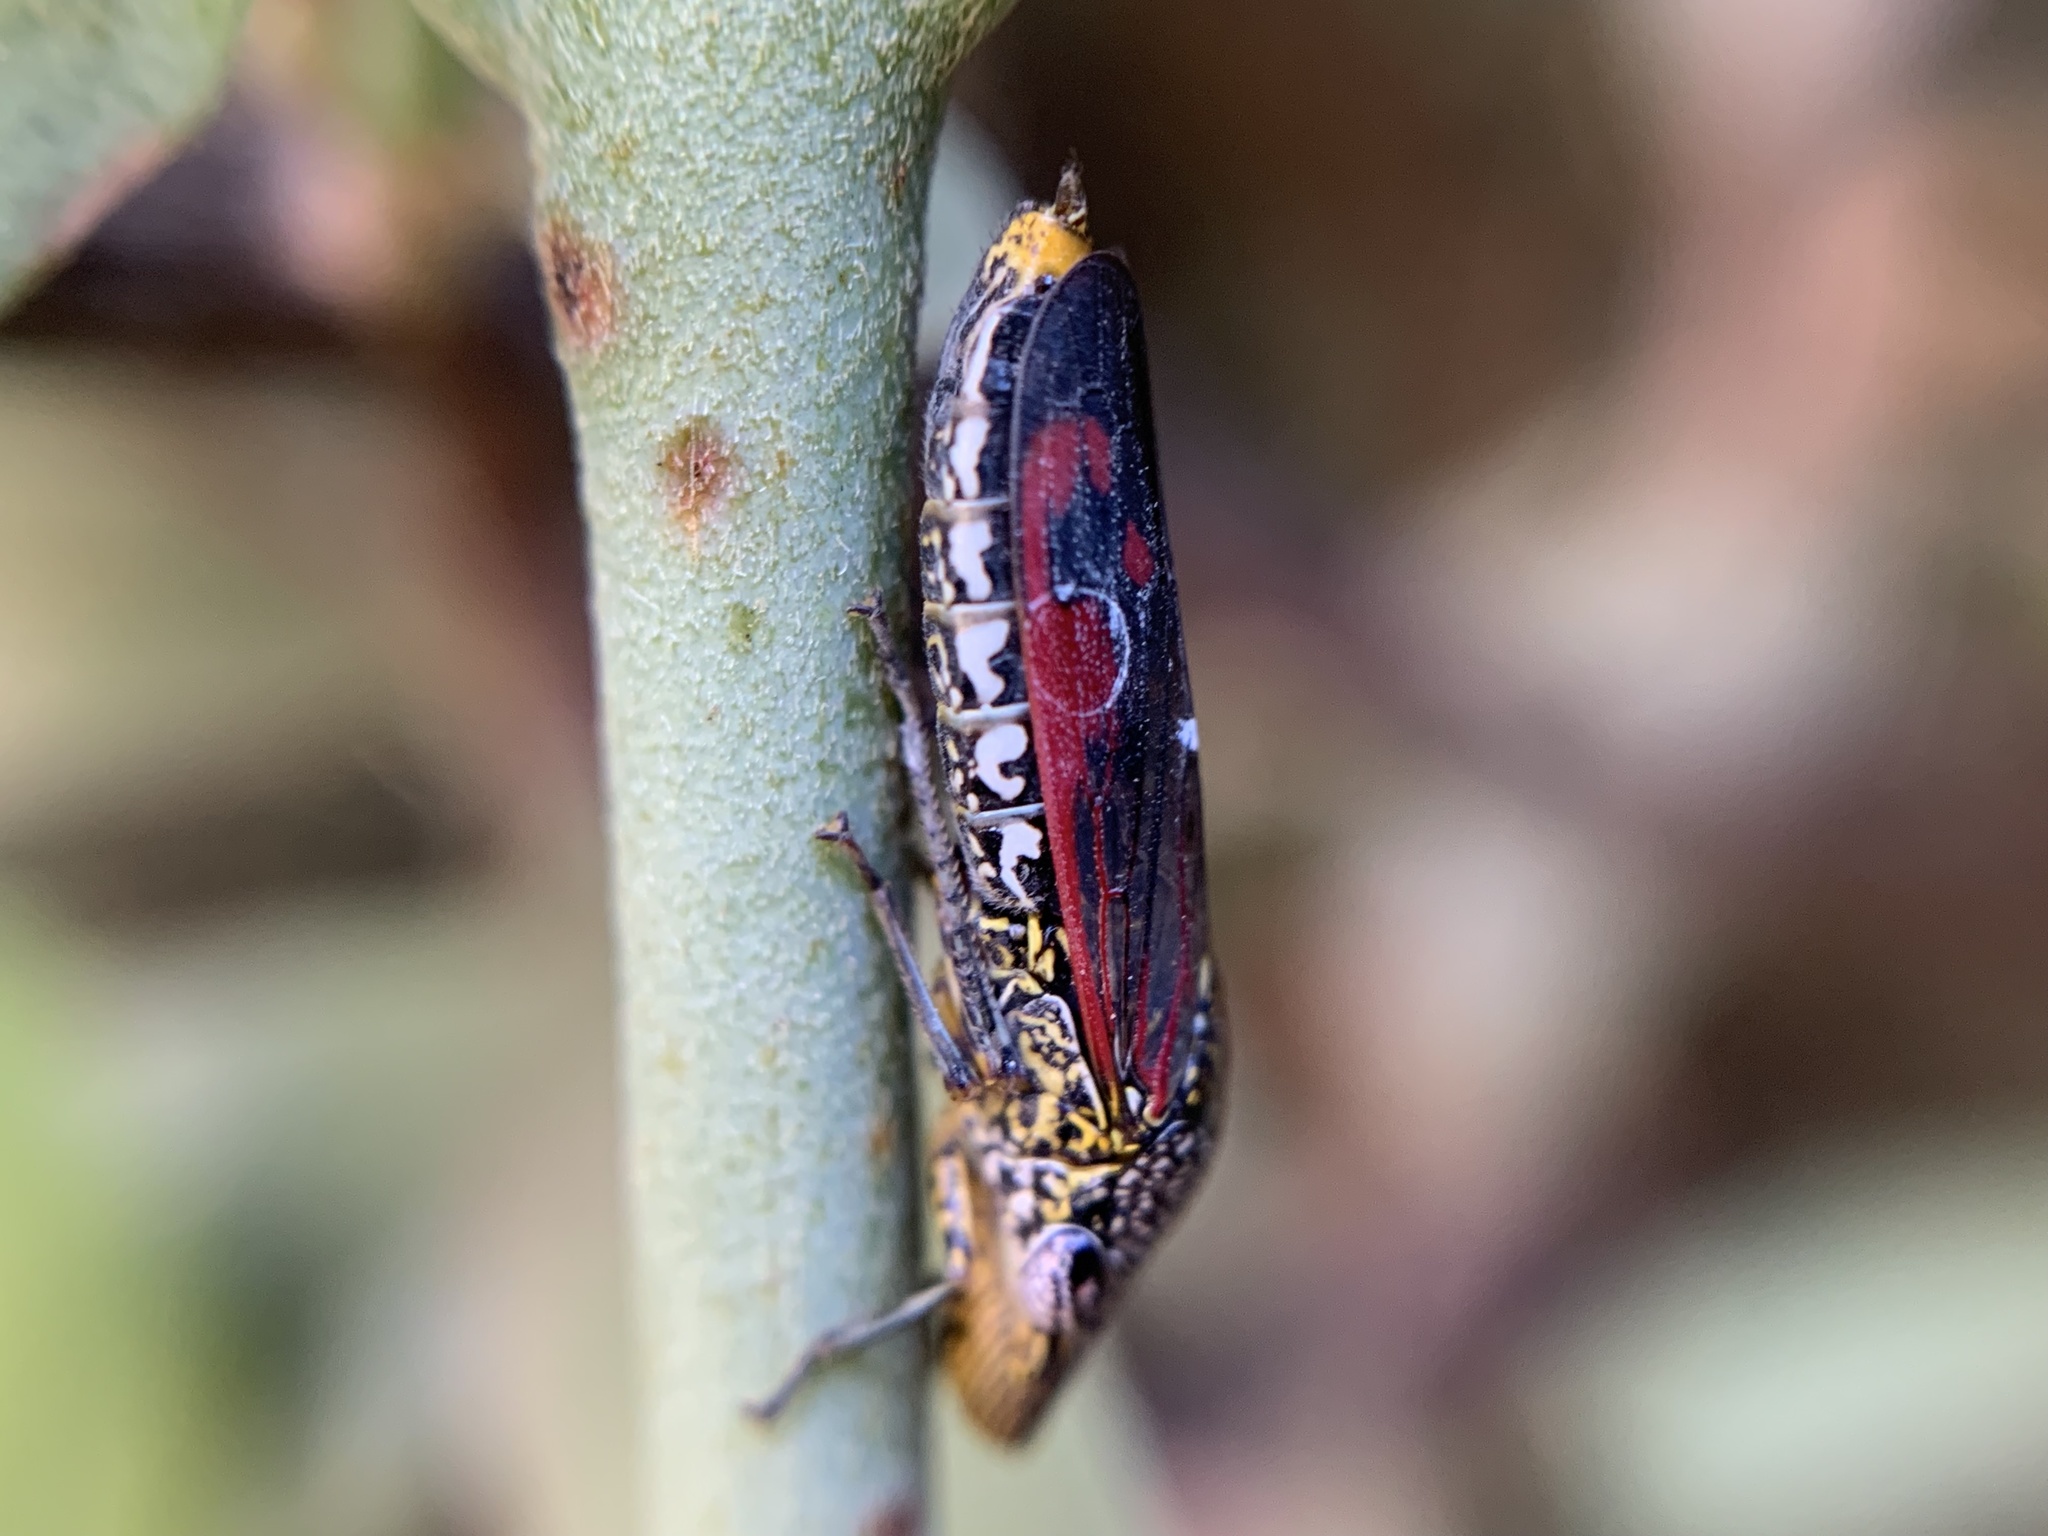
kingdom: Animalia
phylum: Arthropoda
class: Insecta
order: Hemiptera
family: Cicadellidae
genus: Homalodisca
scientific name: Homalodisca liturata
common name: Lacertate sharpshooter
